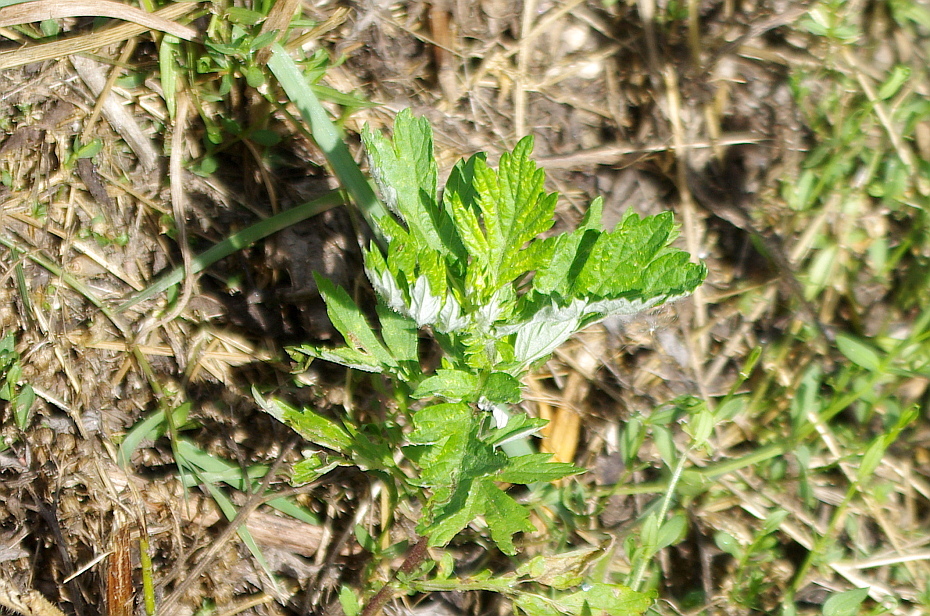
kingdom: Plantae
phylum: Tracheophyta
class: Magnoliopsida
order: Asterales
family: Asteraceae
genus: Artemisia
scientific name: Artemisia vulgaris
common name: Mugwort
